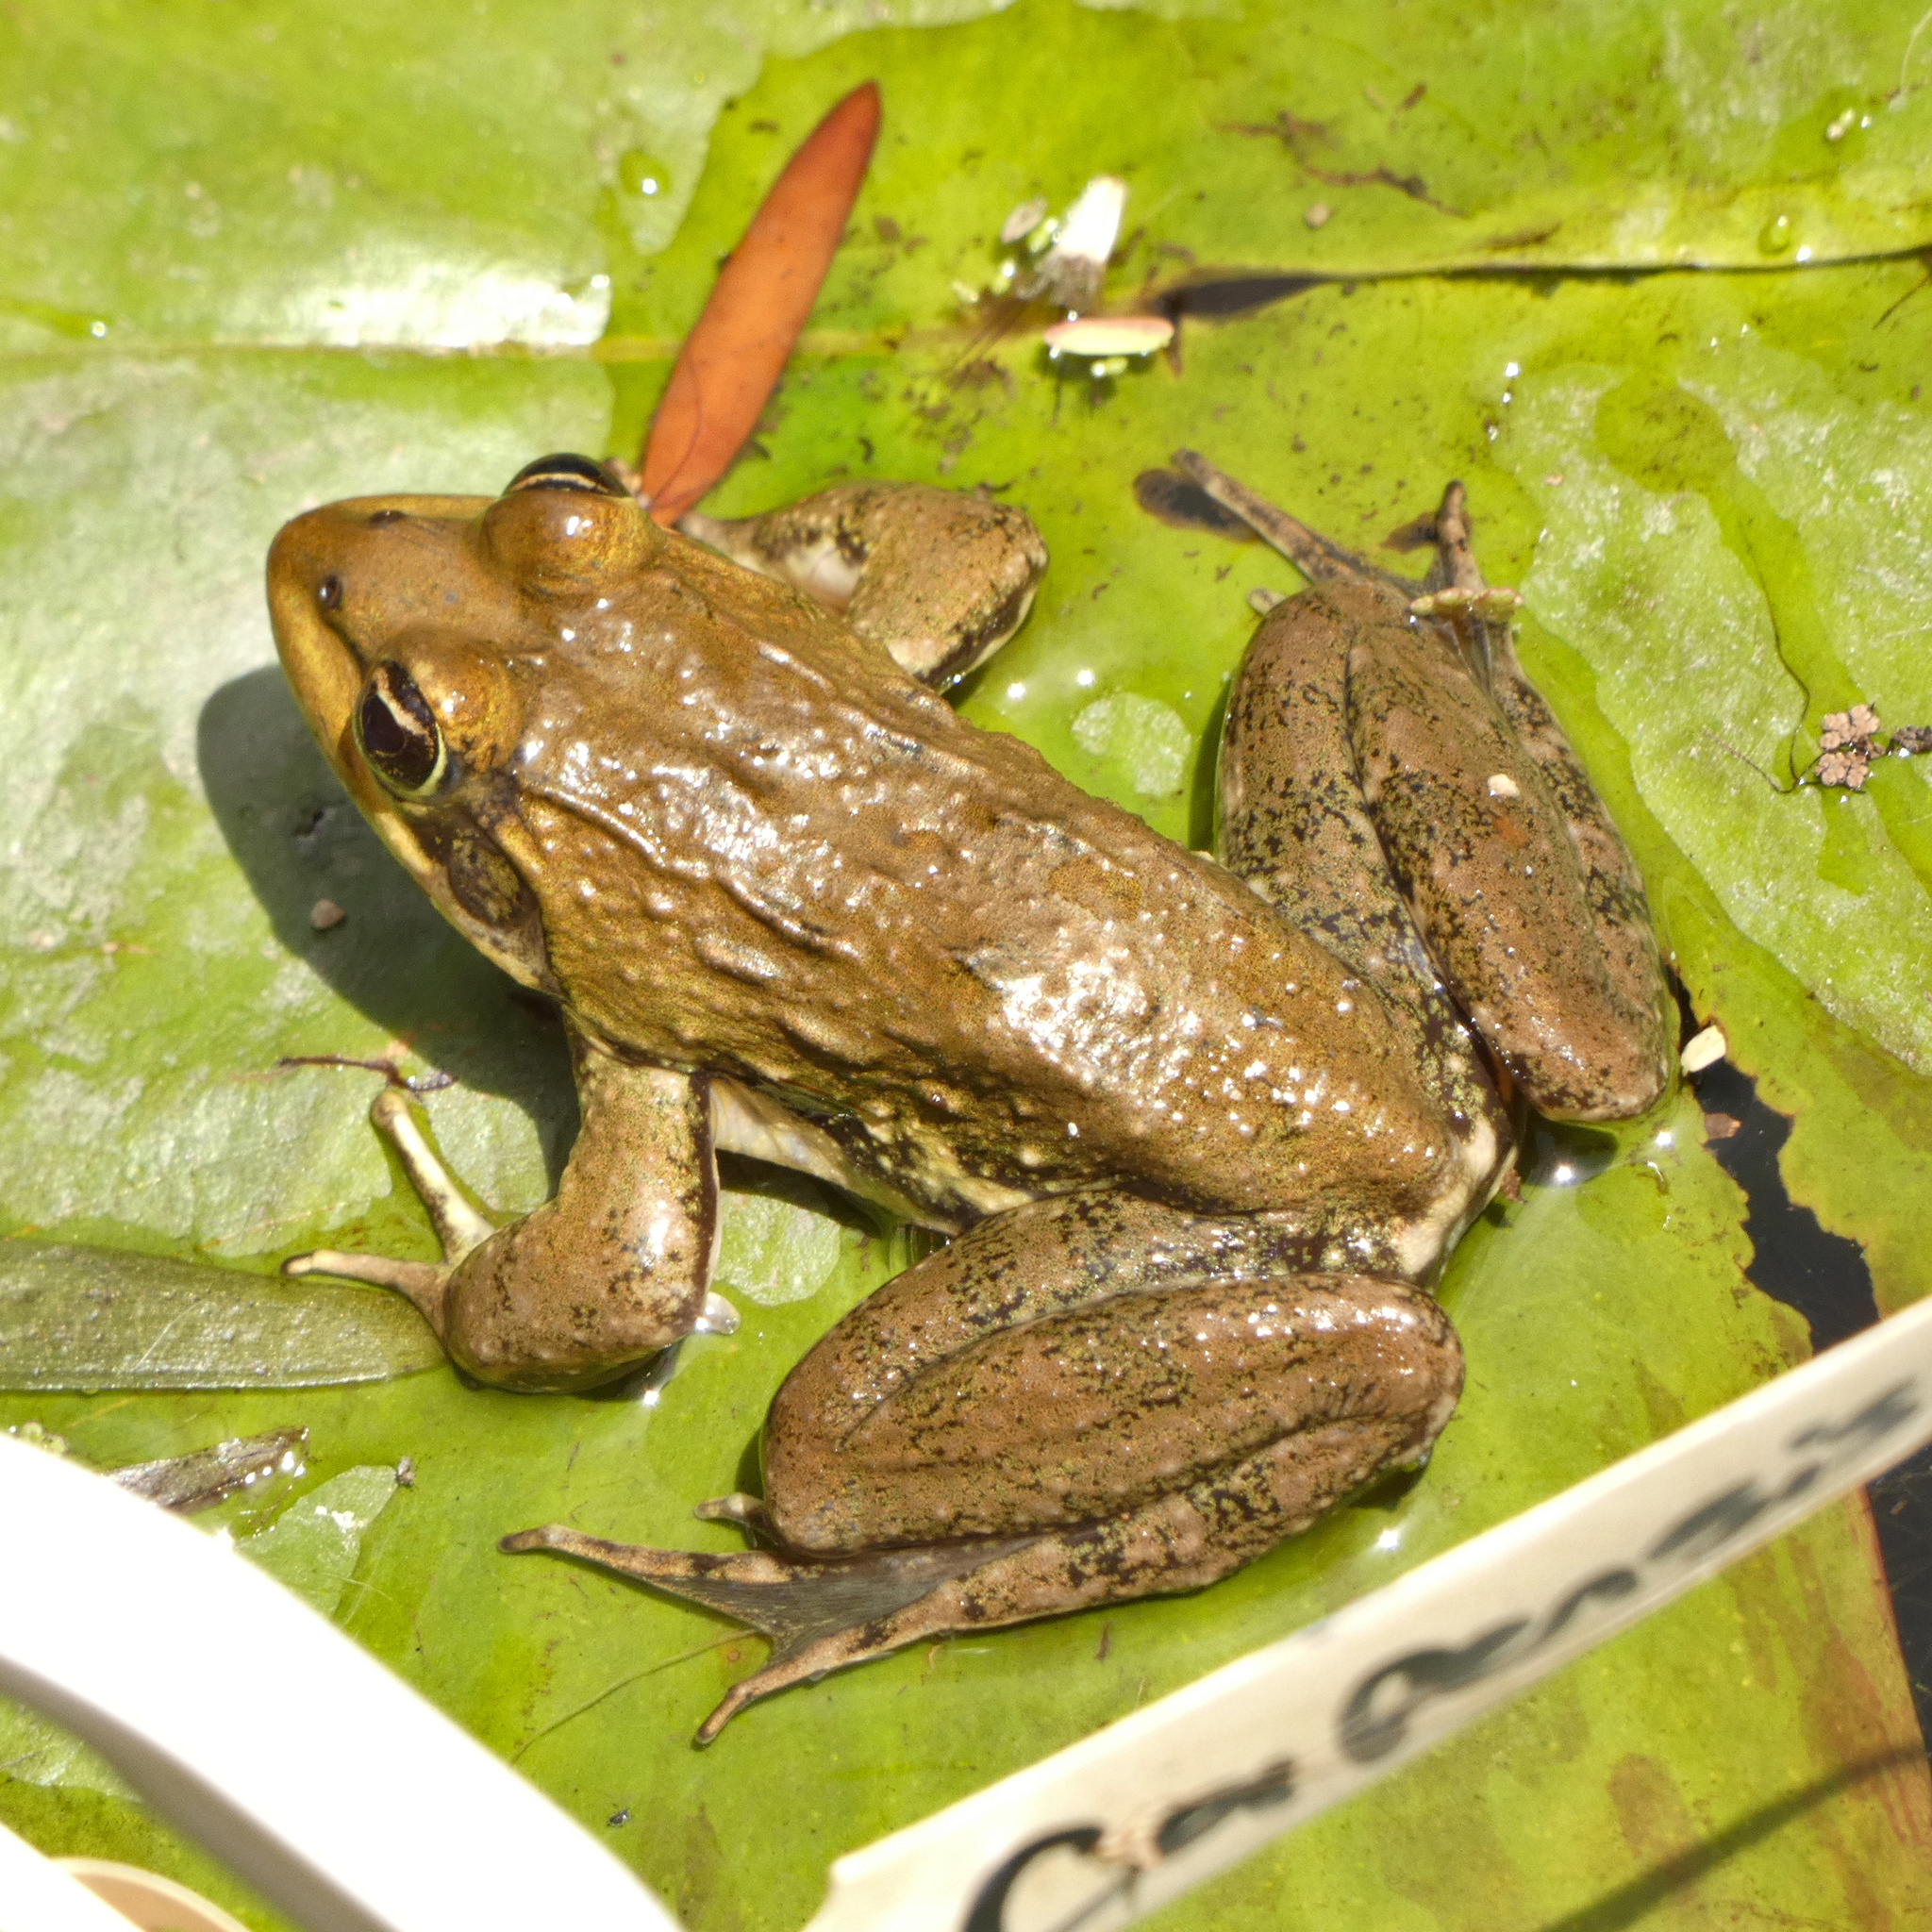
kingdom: Animalia
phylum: Chordata
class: Amphibia
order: Anura
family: Pyxicephalidae
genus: Amietia
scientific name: Amietia fuscigula
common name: Cape rana
